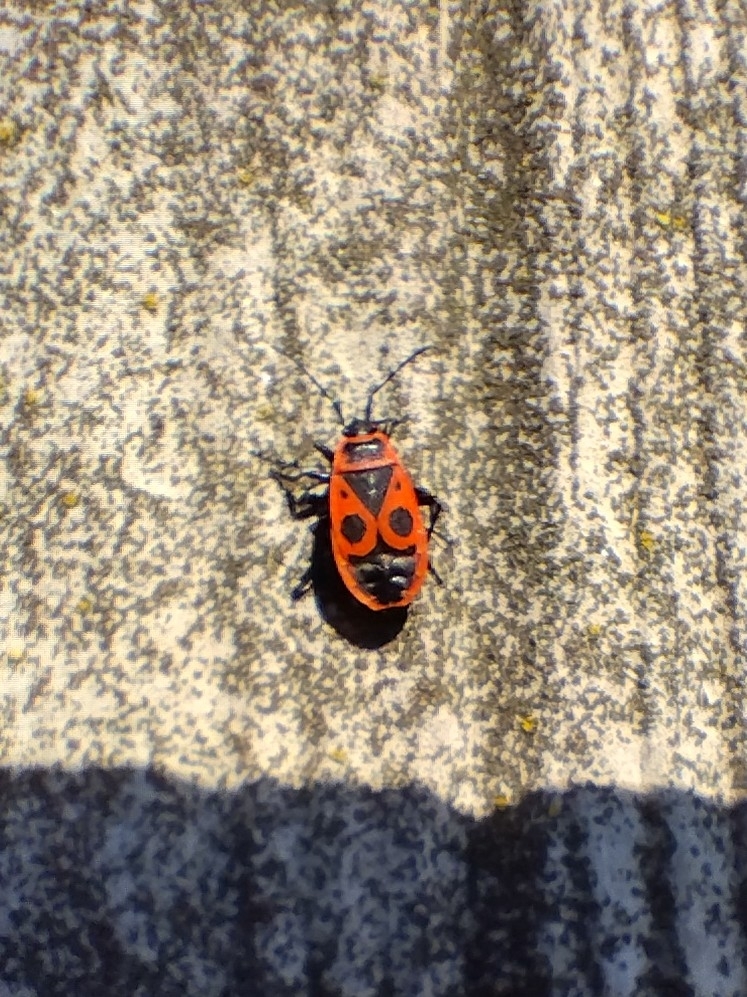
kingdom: Animalia
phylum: Arthropoda
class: Insecta
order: Hemiptera
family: Pyrrhocoridae
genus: Pyrrhocoris
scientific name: Pyrrhocoris apterus
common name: Firebug
